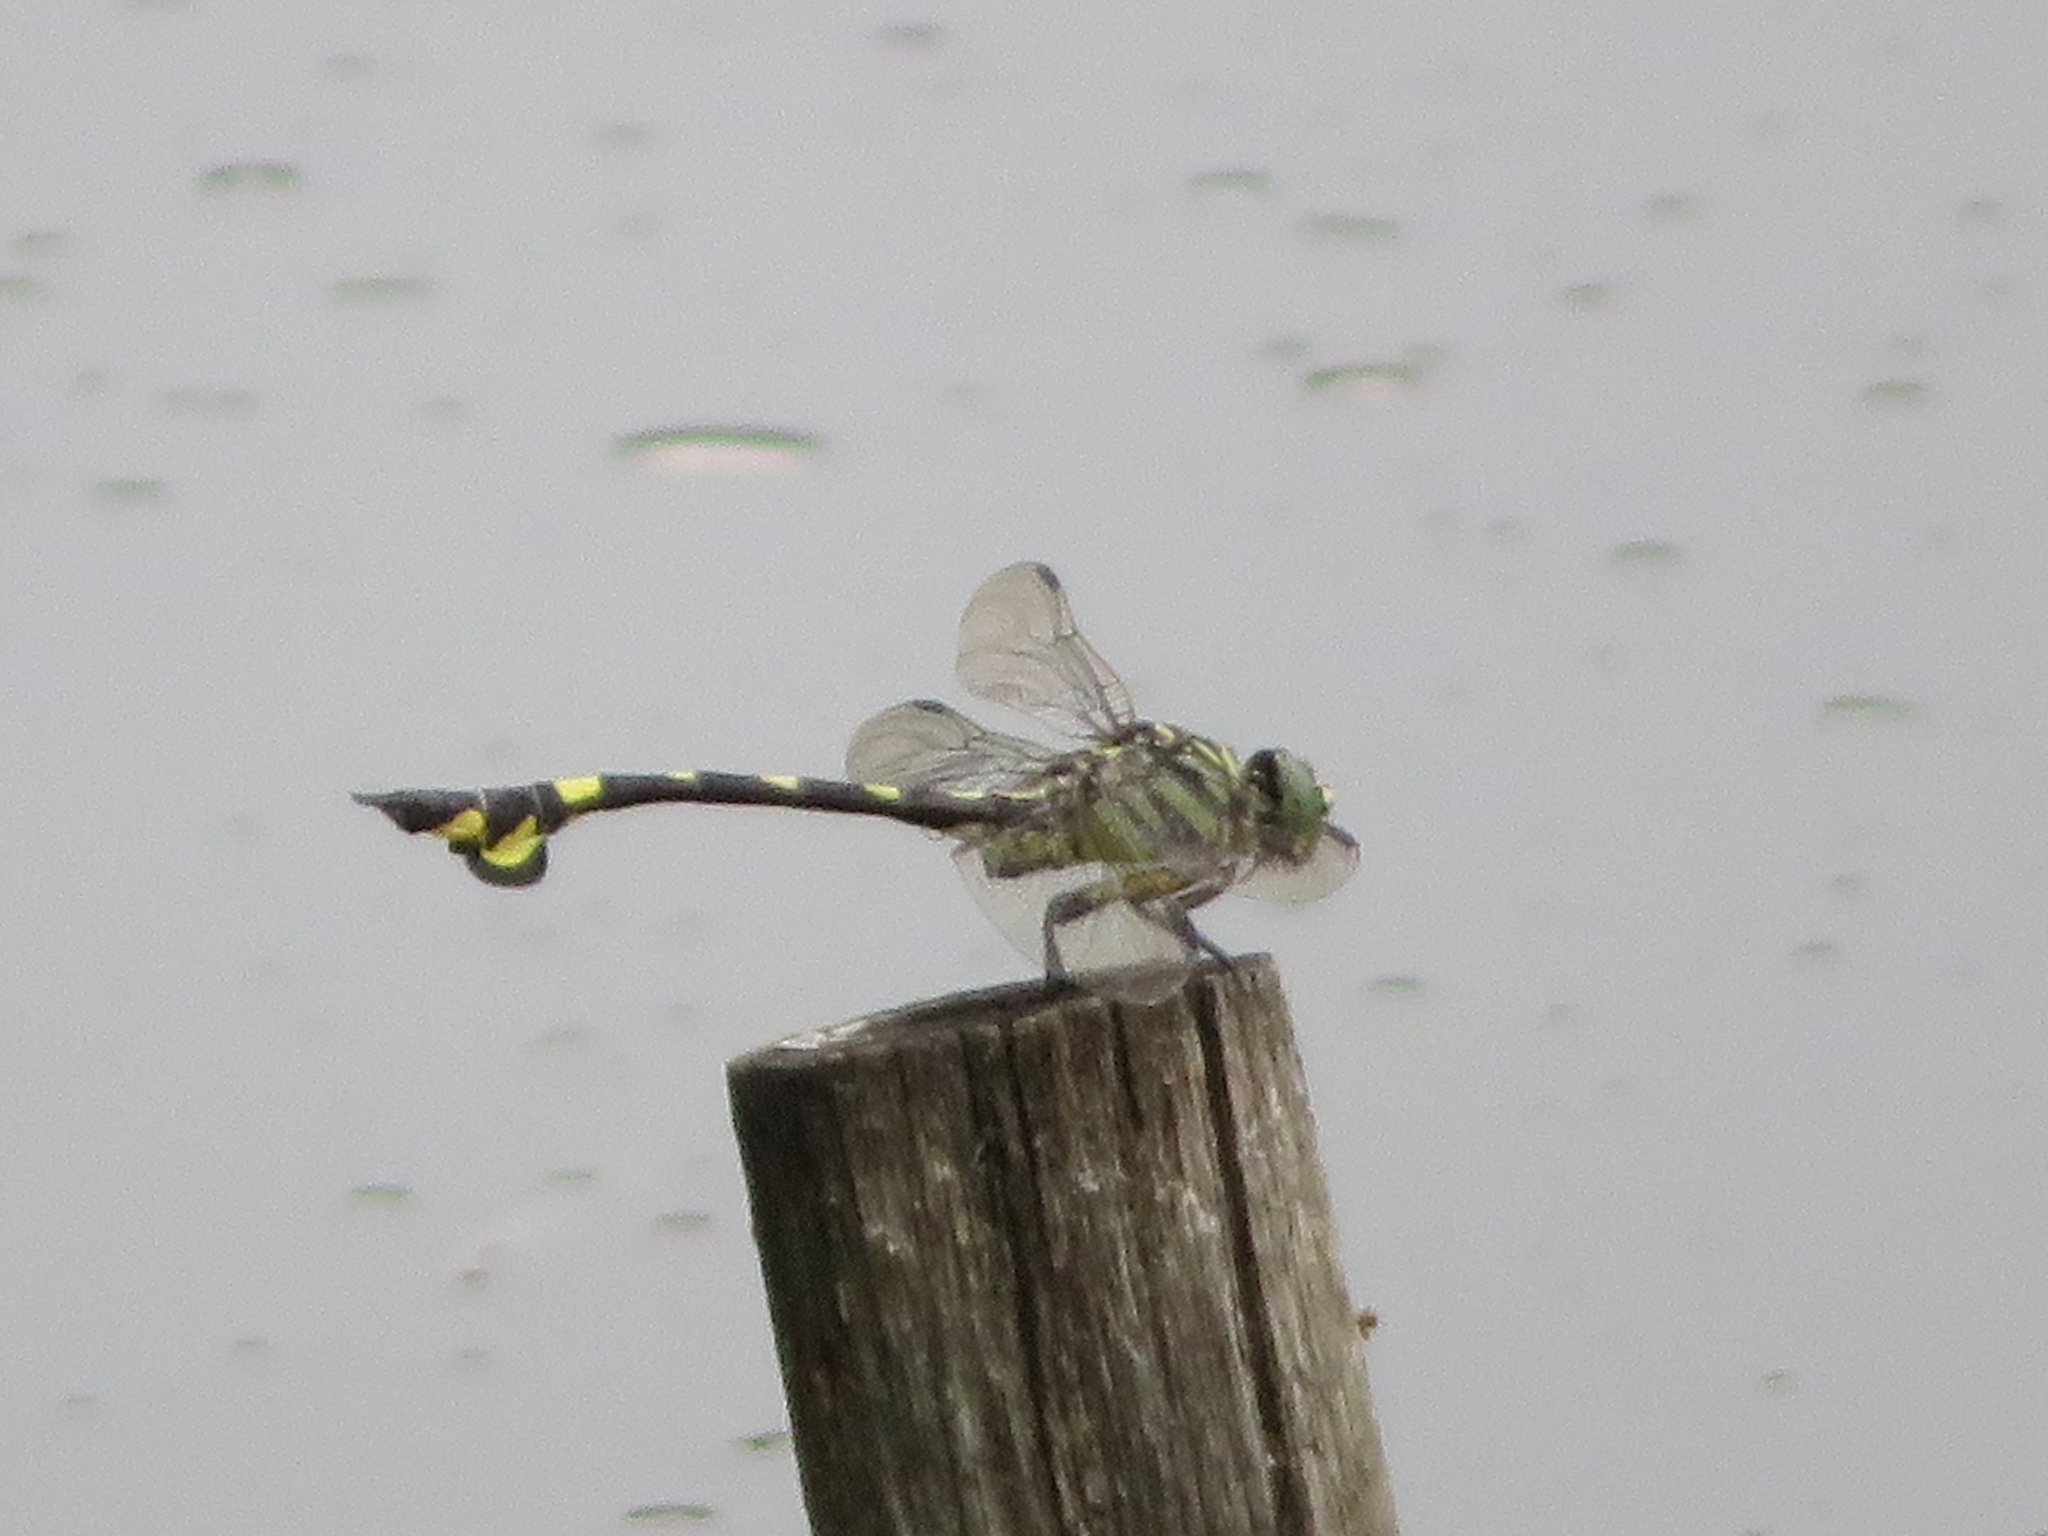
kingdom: Animalia
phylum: Arthropoda
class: Insecta
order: Odonata
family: Gomphidae
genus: Sinictinogomphus
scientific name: Sinictinogomphus clavatus
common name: Golden flangetail
